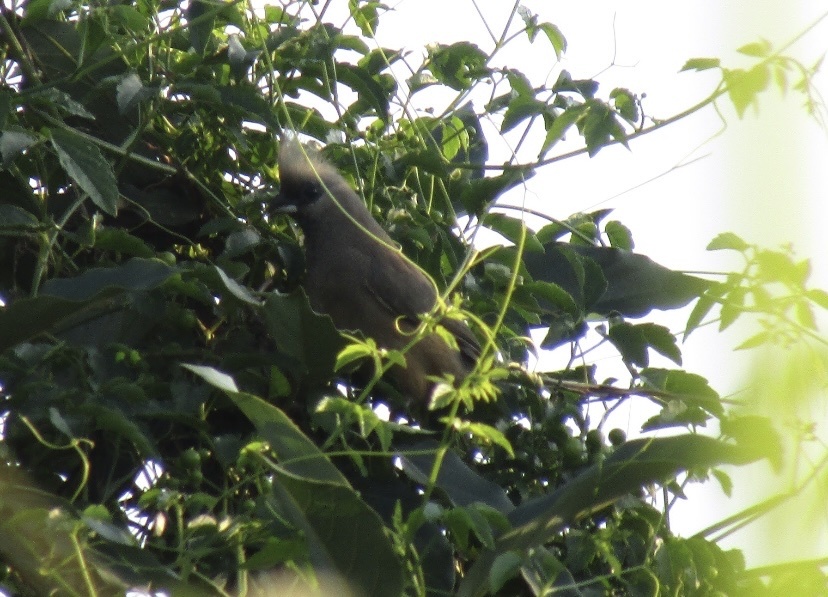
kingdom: Animalia
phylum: Chordata
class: Aves
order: Coliiformes
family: Coliidae
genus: Colius
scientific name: Colius striatus
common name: Speckled mousebird
